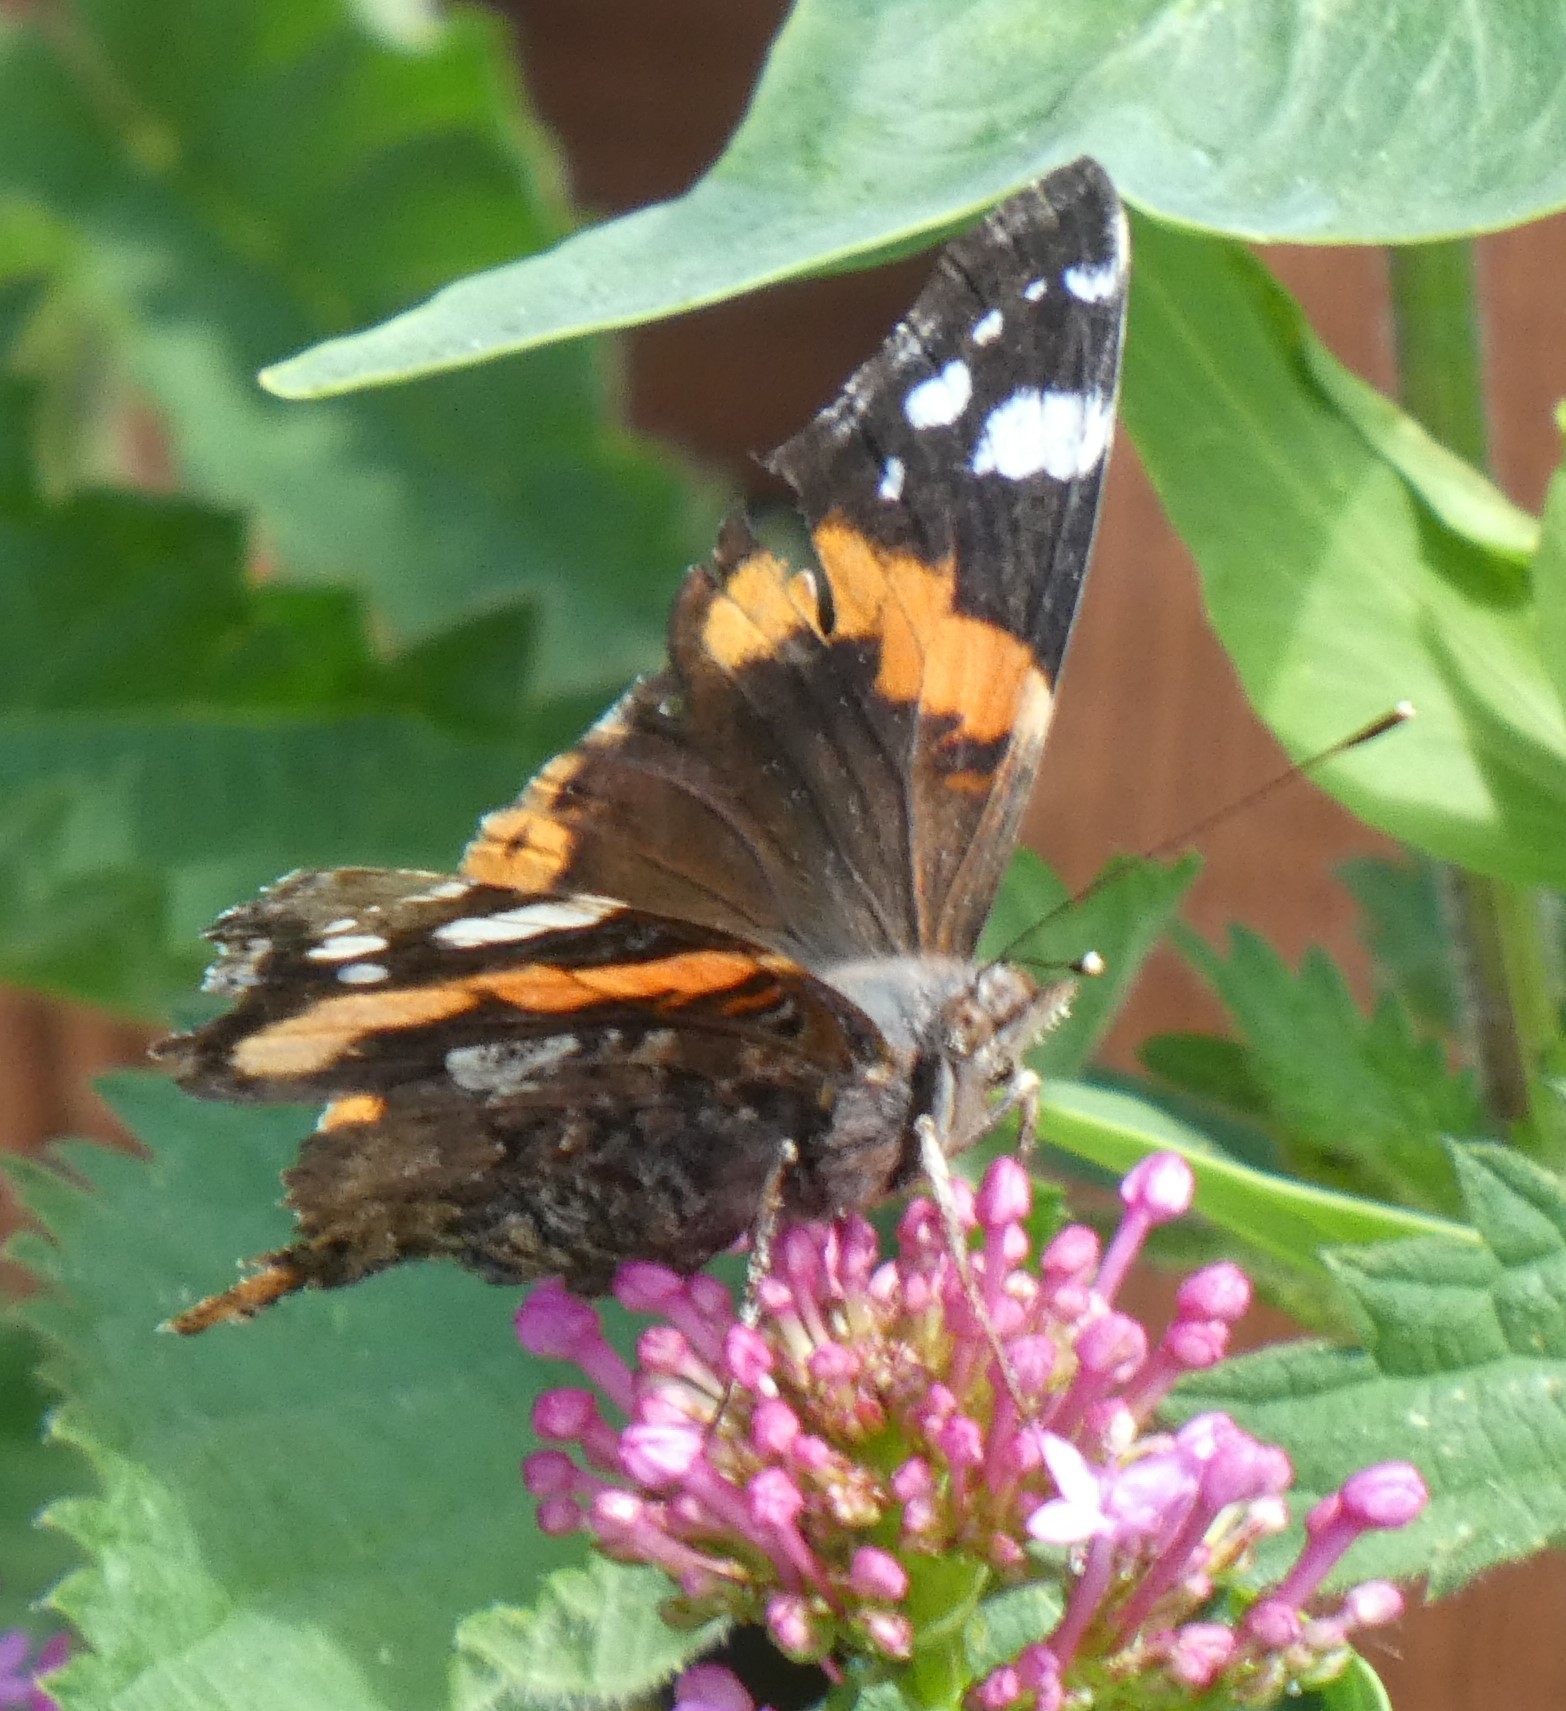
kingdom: Animalia
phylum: Arthropoda
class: Insecta
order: Lepidoptera
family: Nymphalidae
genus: Vanessa
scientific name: Vanessa atalanta
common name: Red admiral
